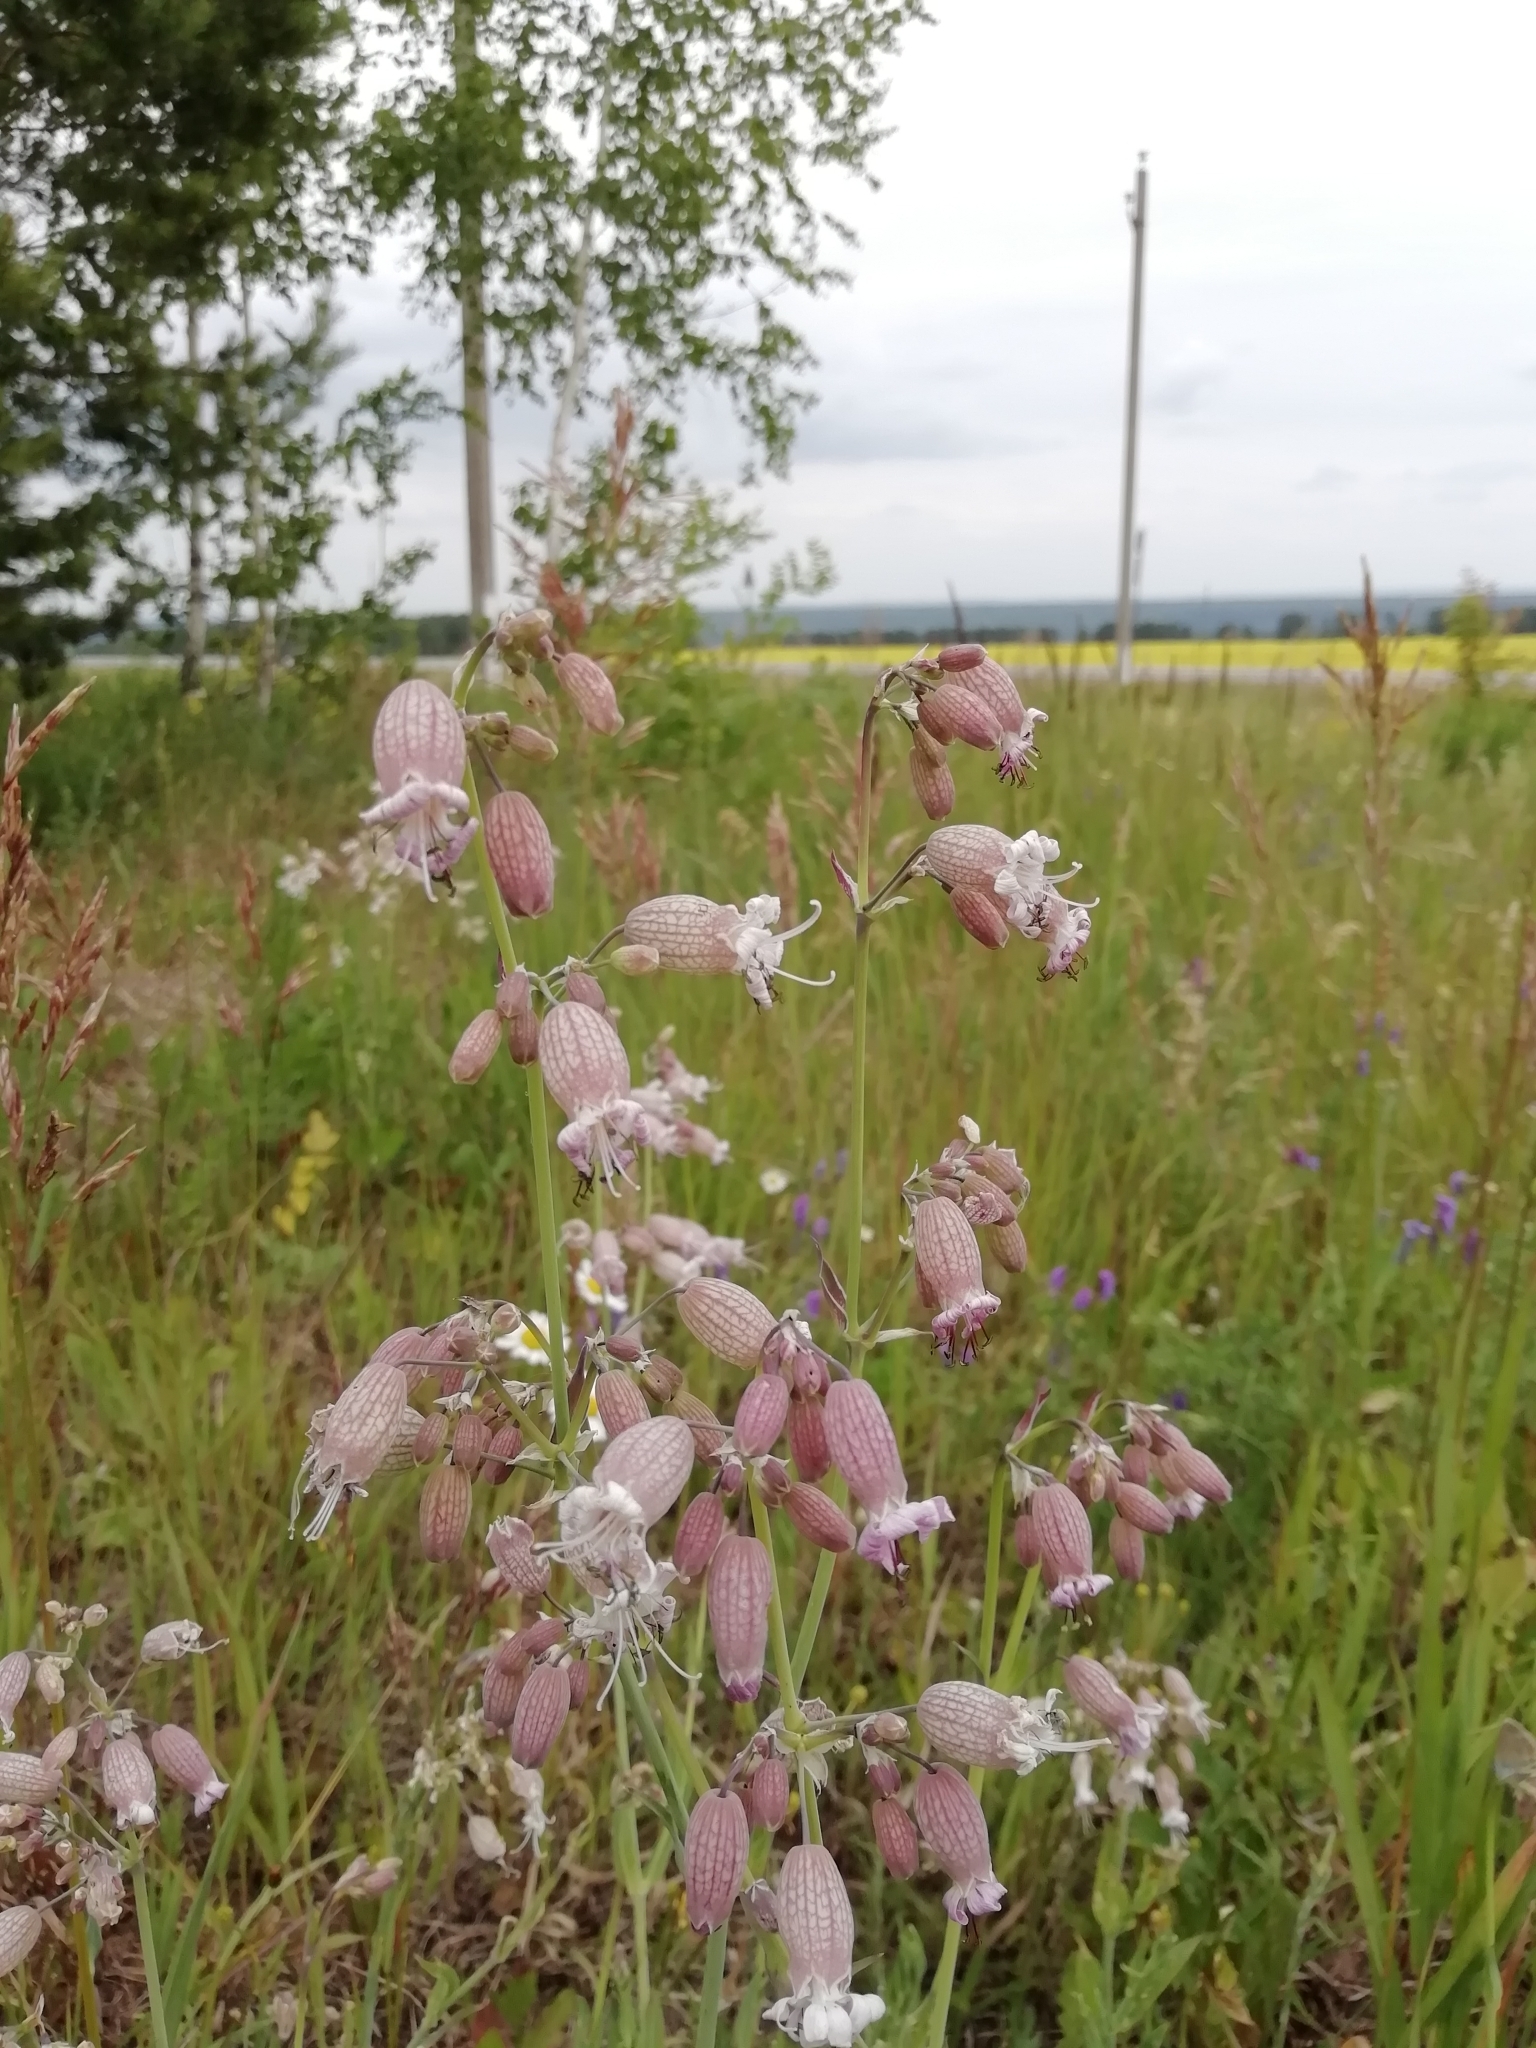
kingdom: Plantae
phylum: Tracheophyta
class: Magnoliopsida
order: Caryophyllales
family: Caryophyllaceae
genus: Silene
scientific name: Silene vulgaris
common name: Bladder campion
